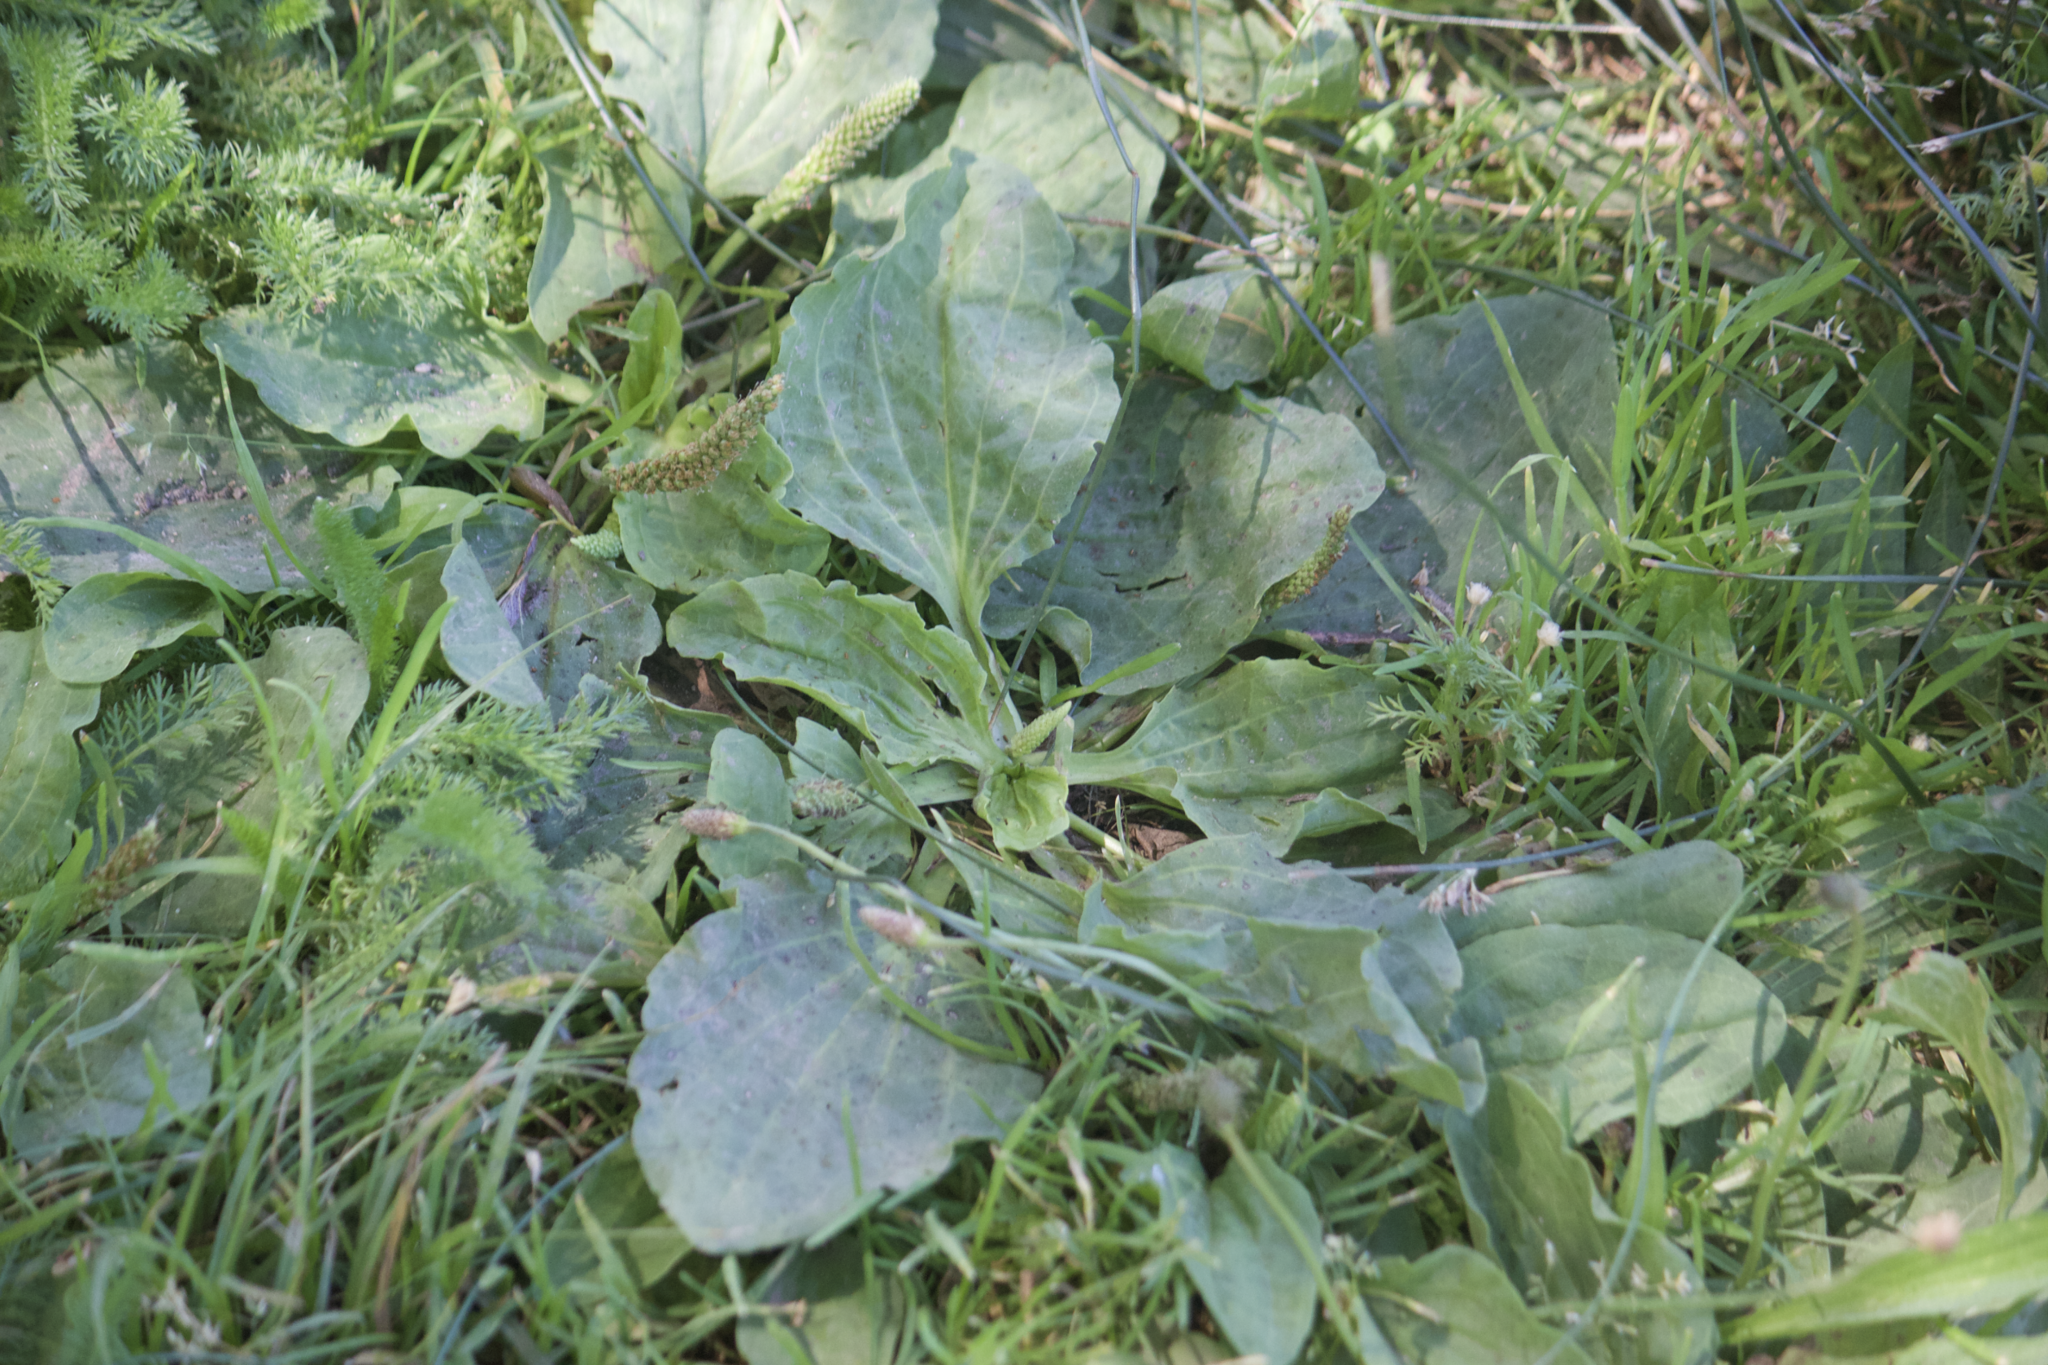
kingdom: Plantae
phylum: Tracheophyta
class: Magnoliopsida
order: Lamiales
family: Plantaginaceae
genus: Plantago
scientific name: Plantago major
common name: Common plantain
